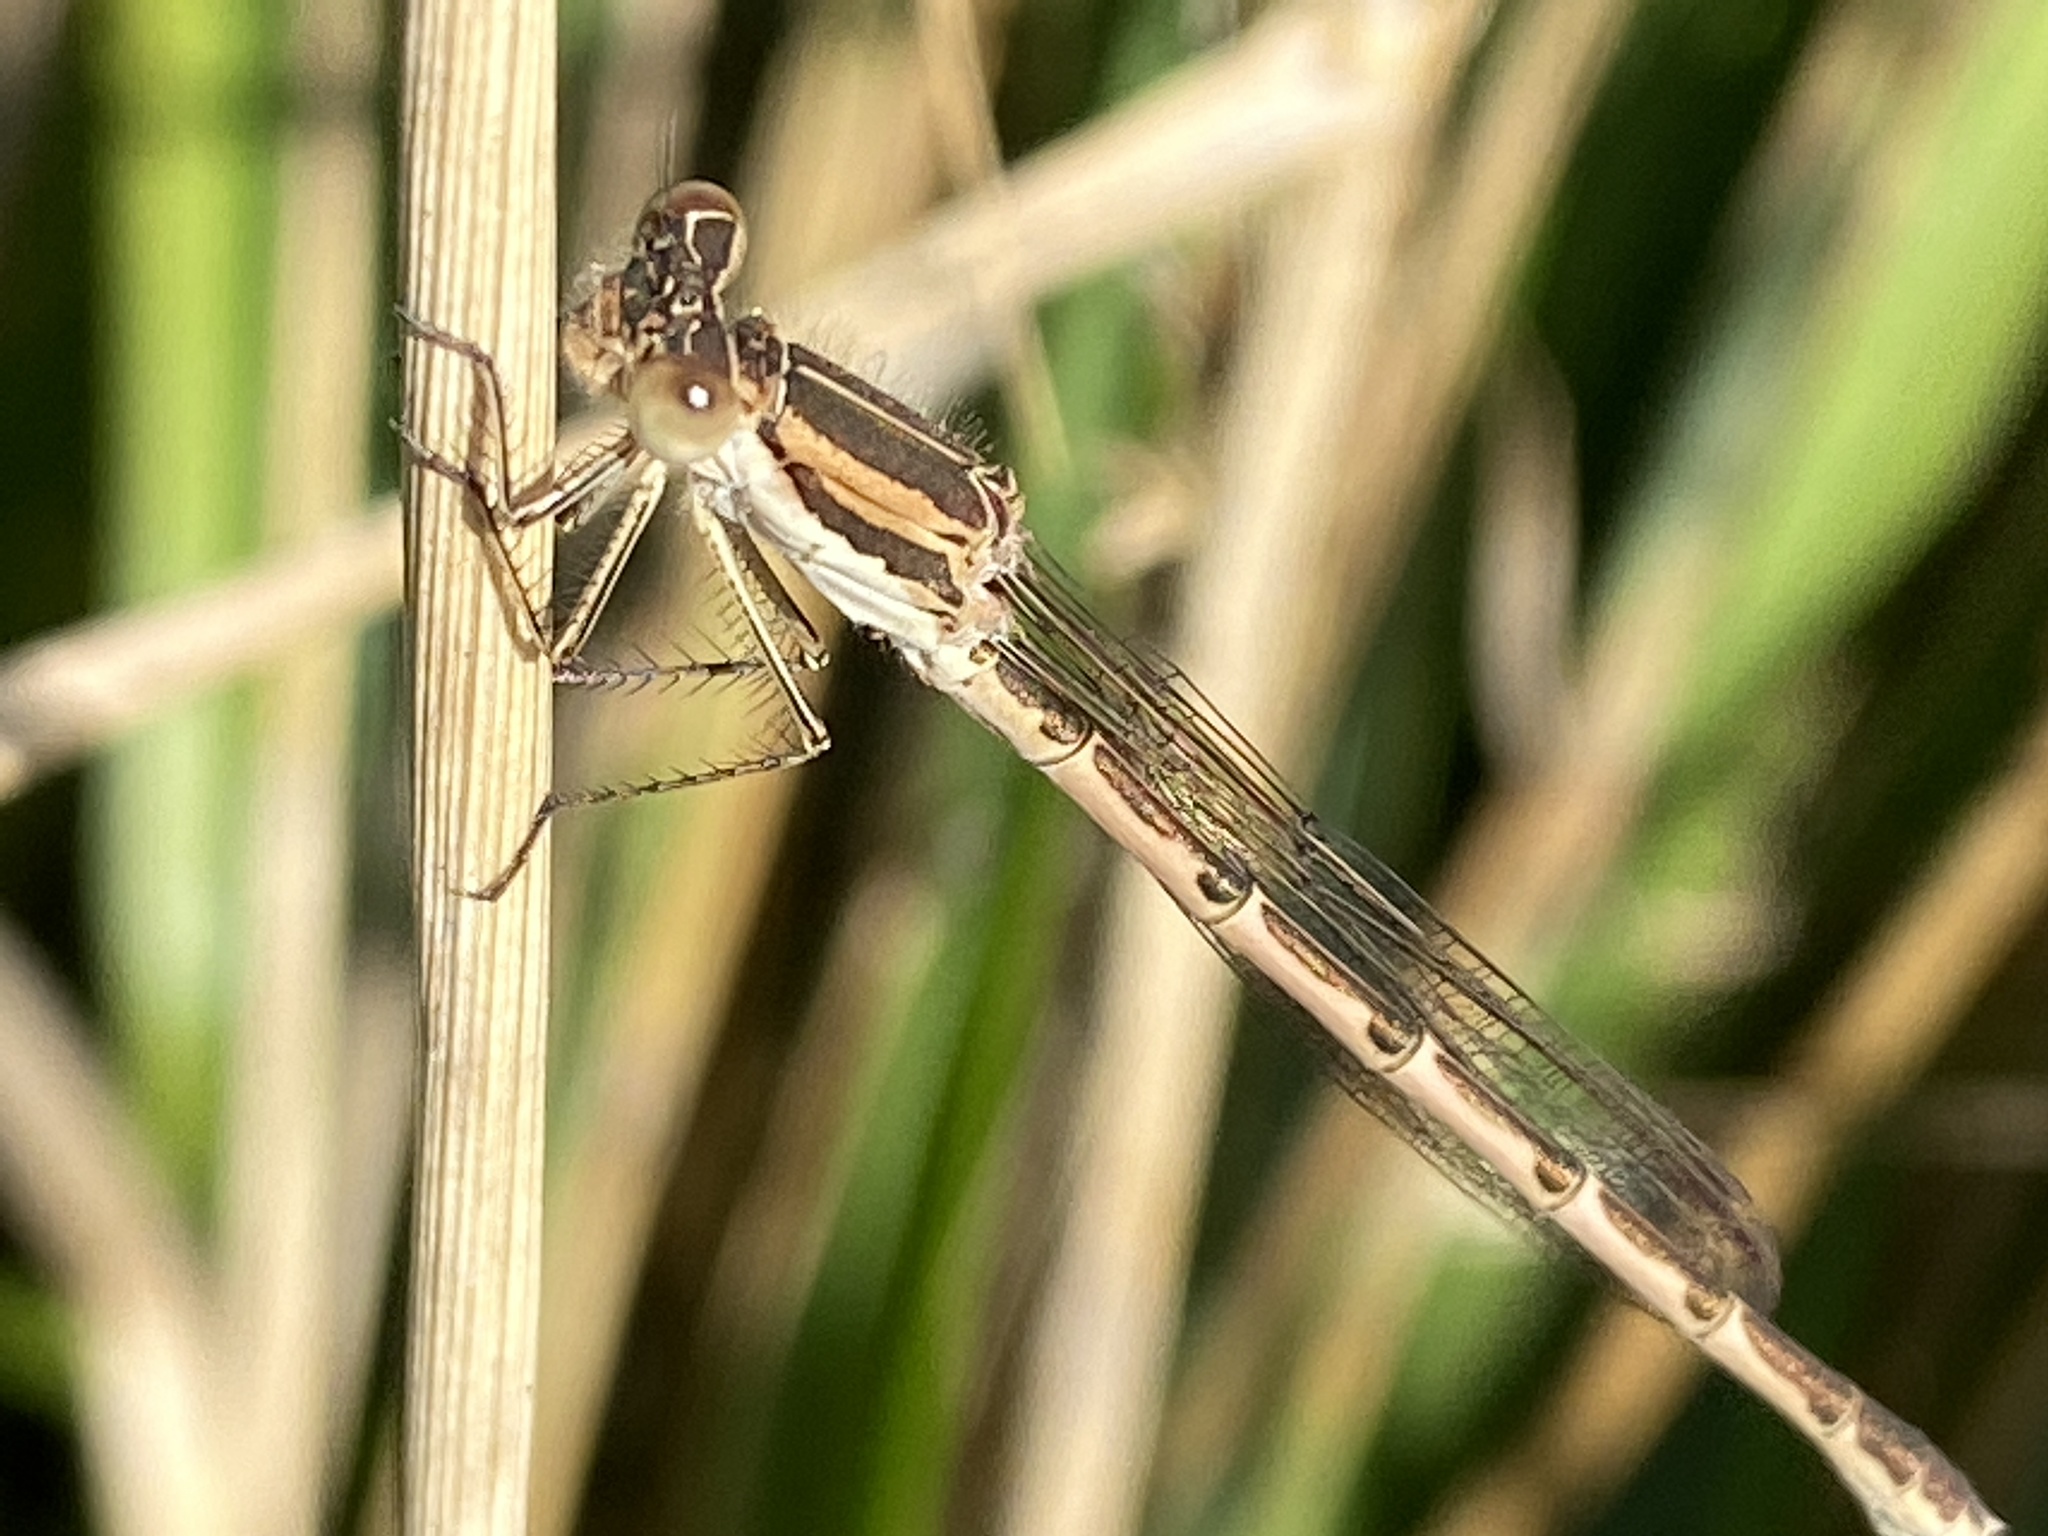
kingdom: Animalia
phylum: Arthropoda
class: Insecta
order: Odonata
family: Lestidae
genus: Sympecma
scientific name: Sympecma fusca
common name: Common winter damsel
